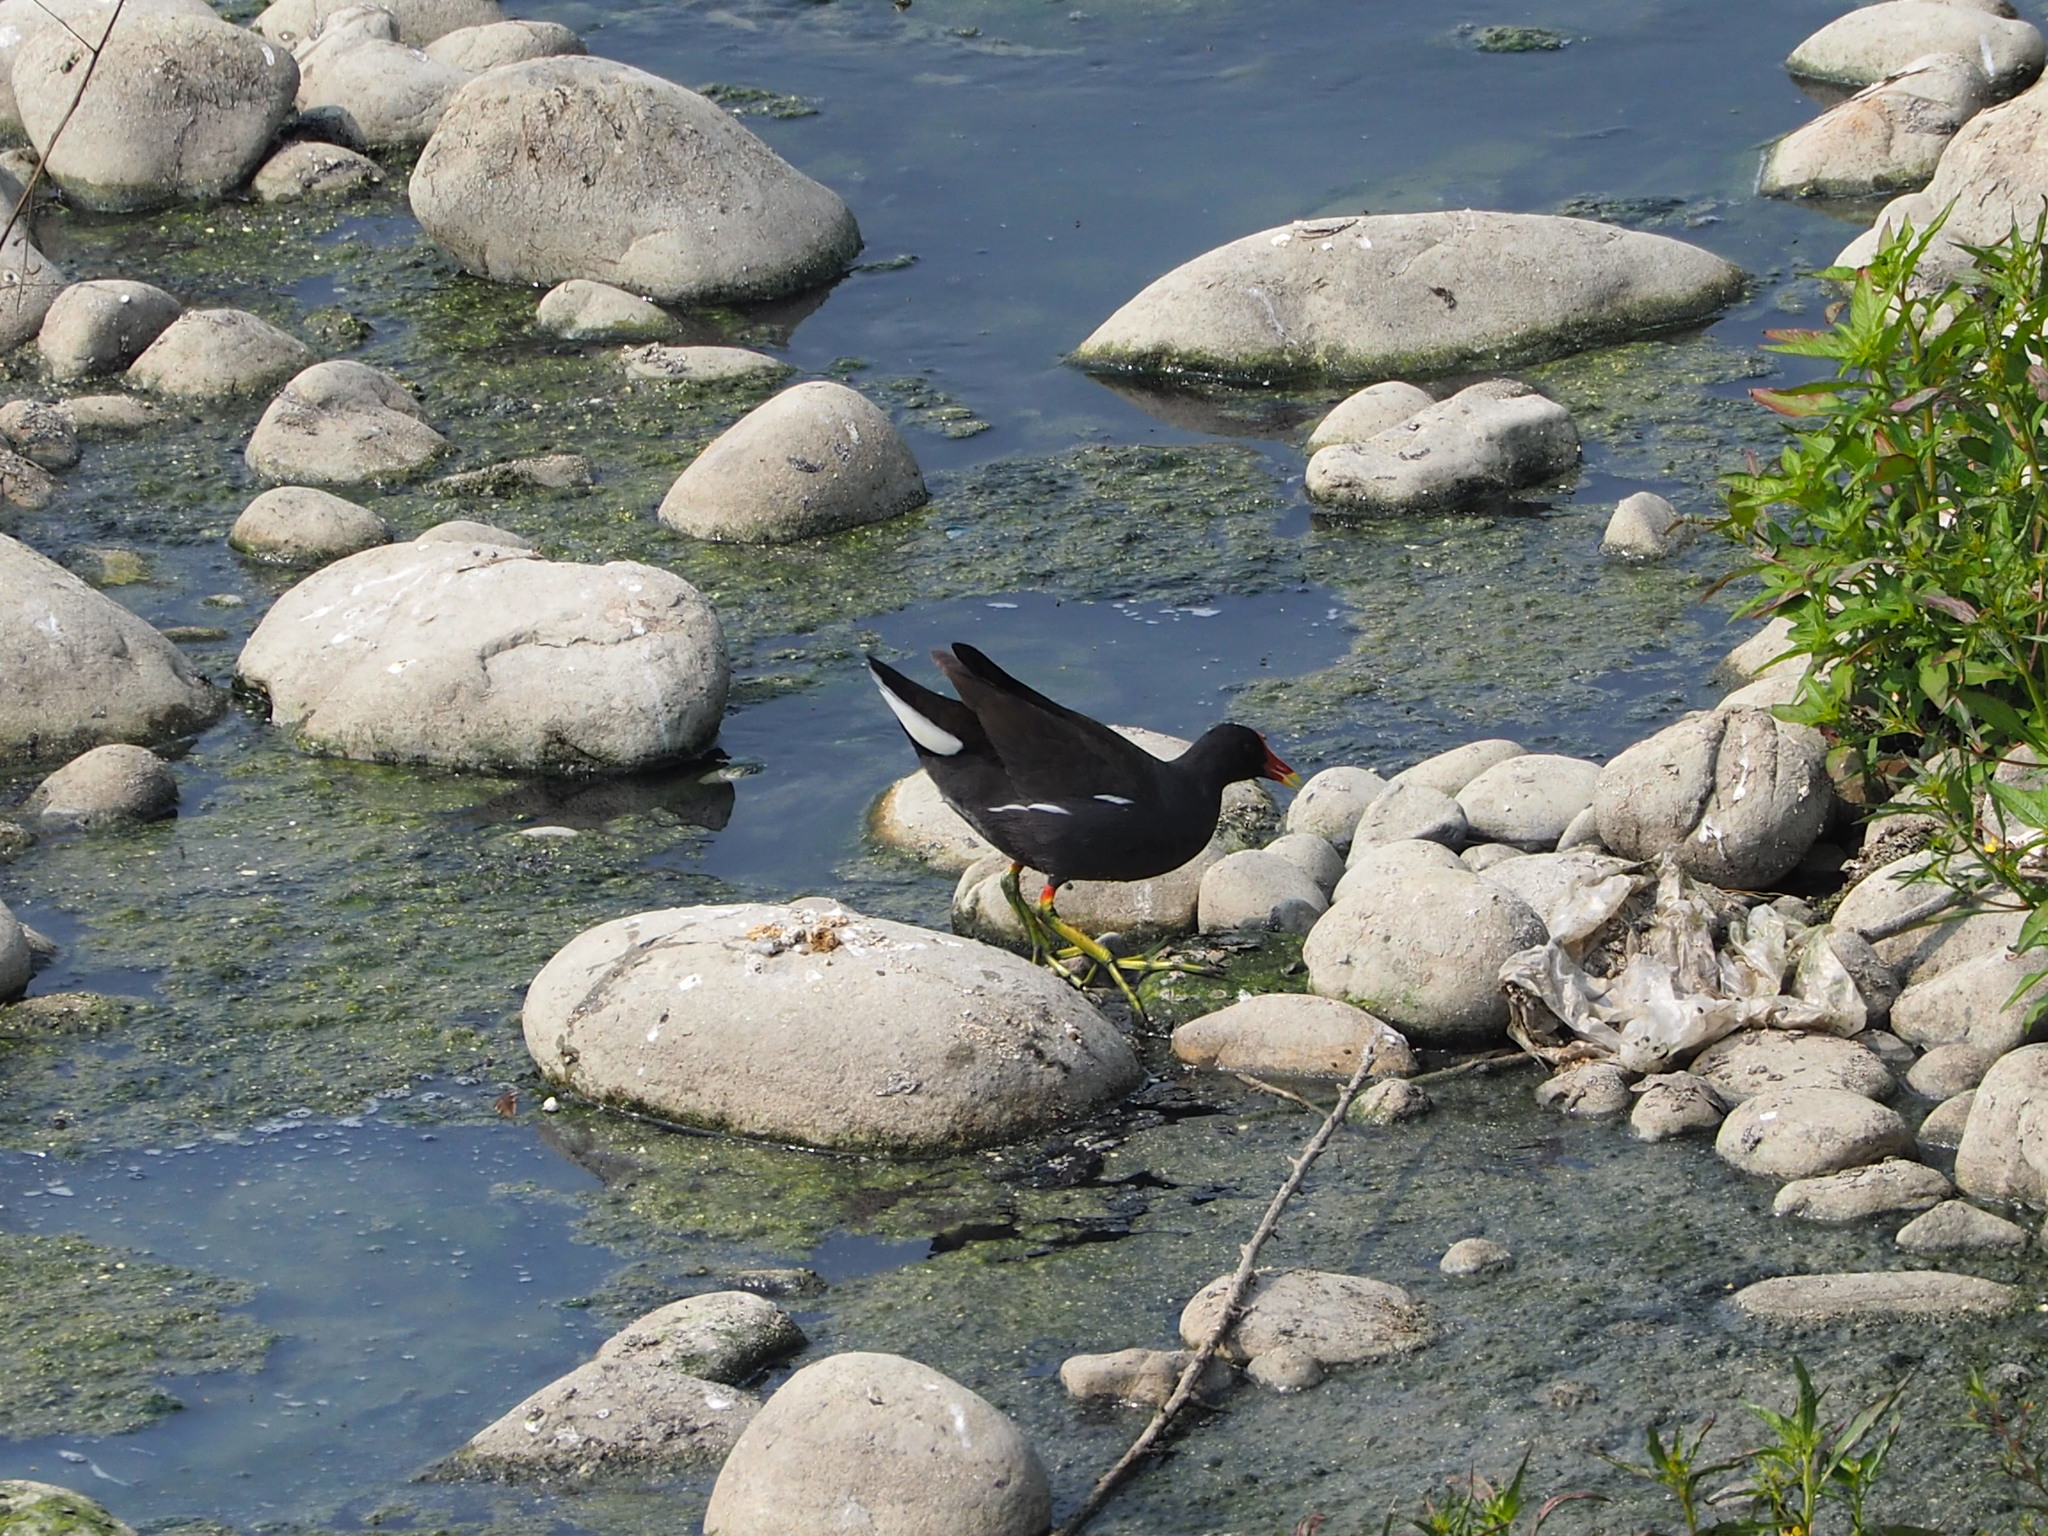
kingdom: Animalia
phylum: Chordata
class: Aves
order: Gruiformes
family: Rallidae
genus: Gallinula
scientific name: Gallinula chloropus
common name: Common moorhen
